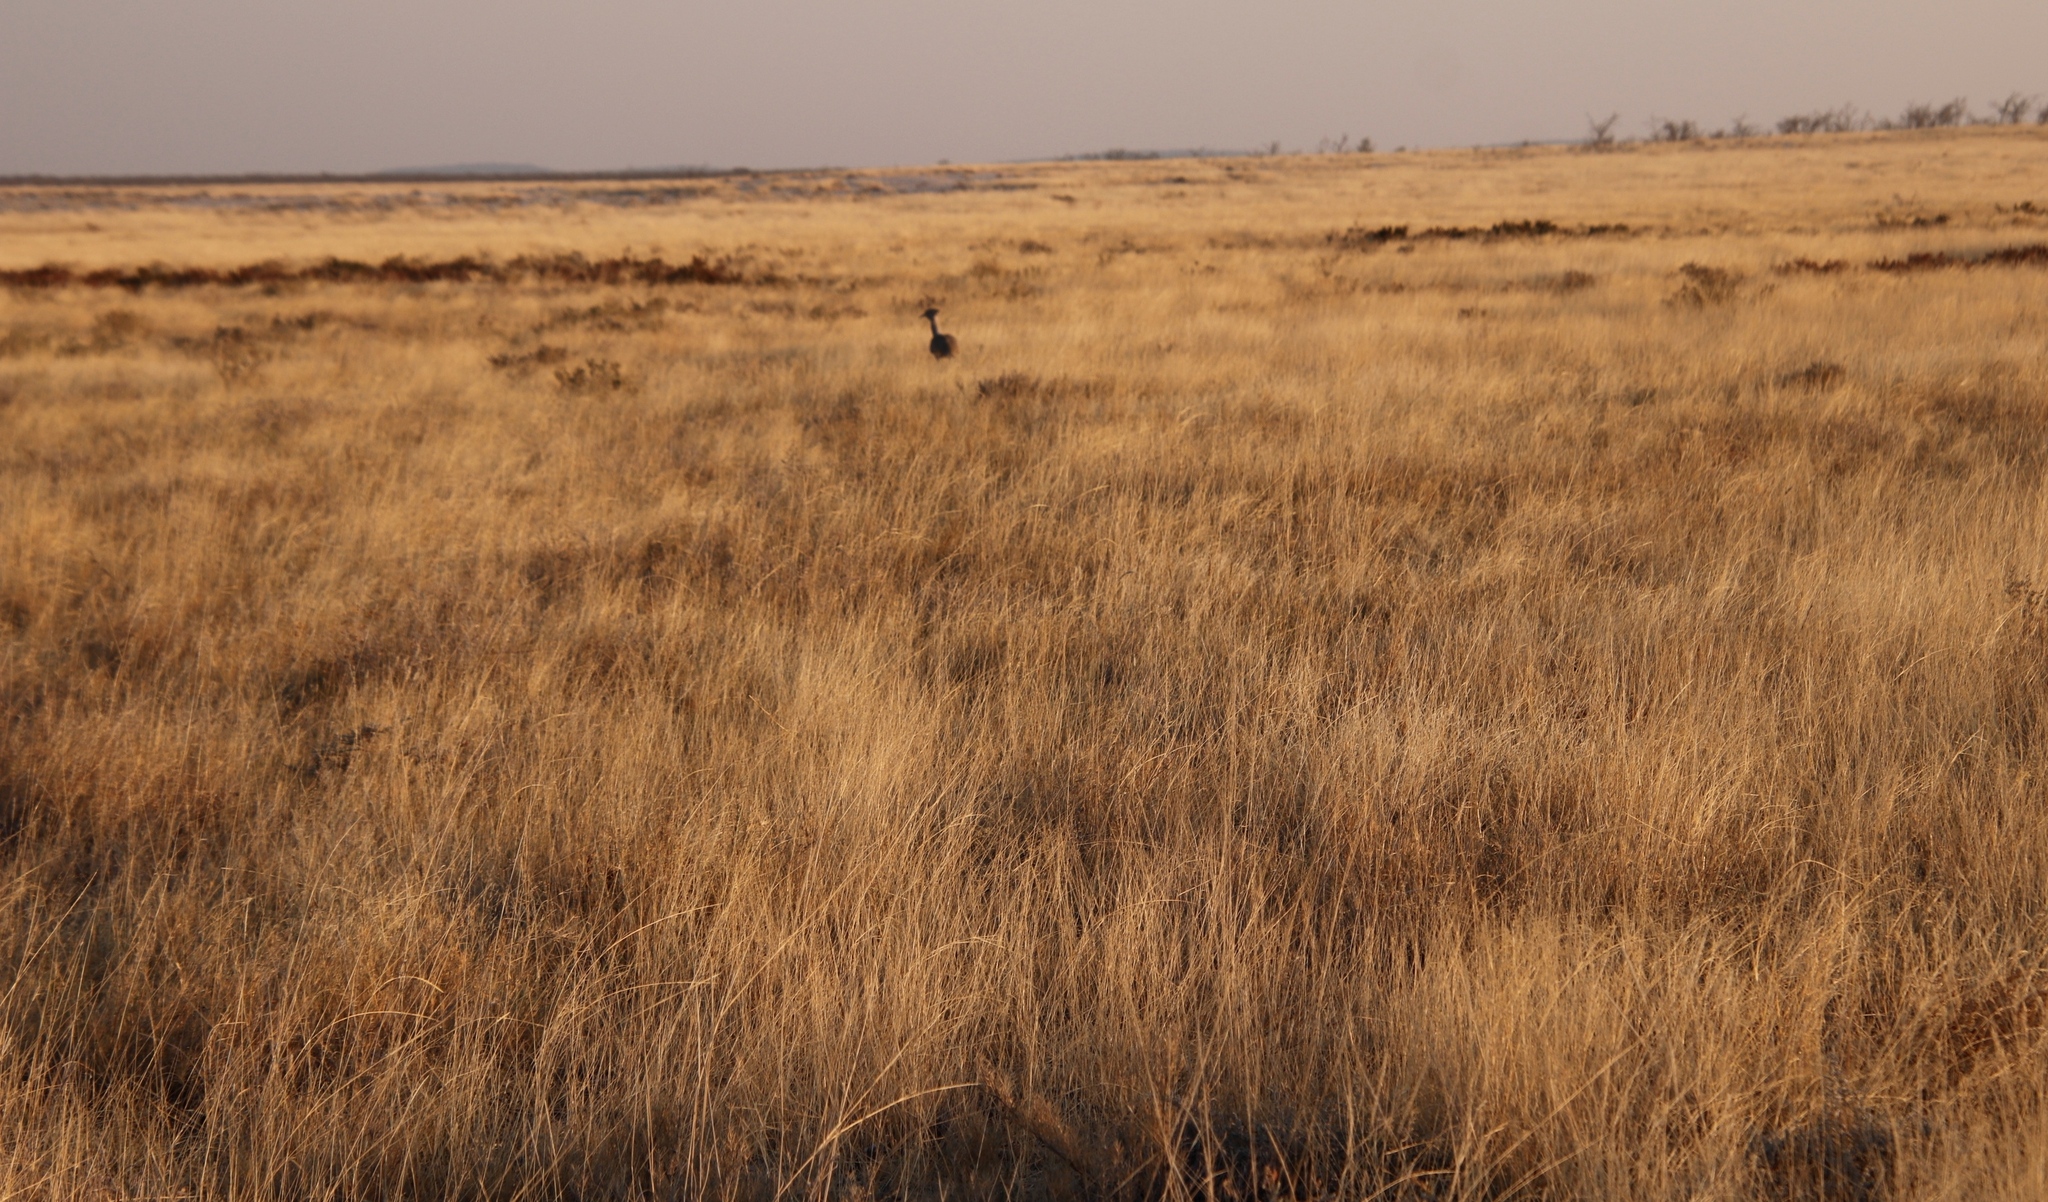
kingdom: Animalia
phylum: Chordata
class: Aves
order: Otidiformes
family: Otididae
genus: Ardeotis
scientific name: Ardeotis kori
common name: Kori bustard
